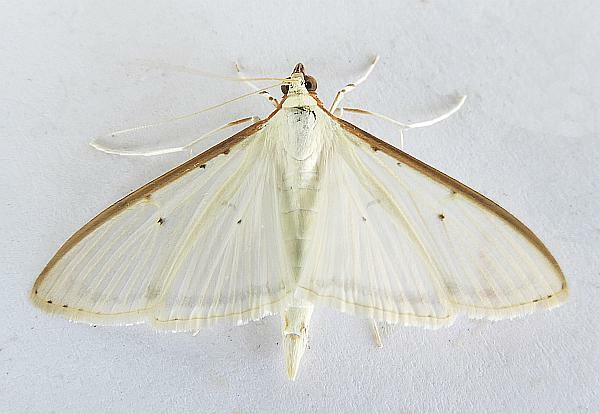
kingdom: Animalia
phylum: Arthropoda
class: Insecta
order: Lepidoptera
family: Crambidae
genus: Palpita
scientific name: Palpita quadristigmalis
